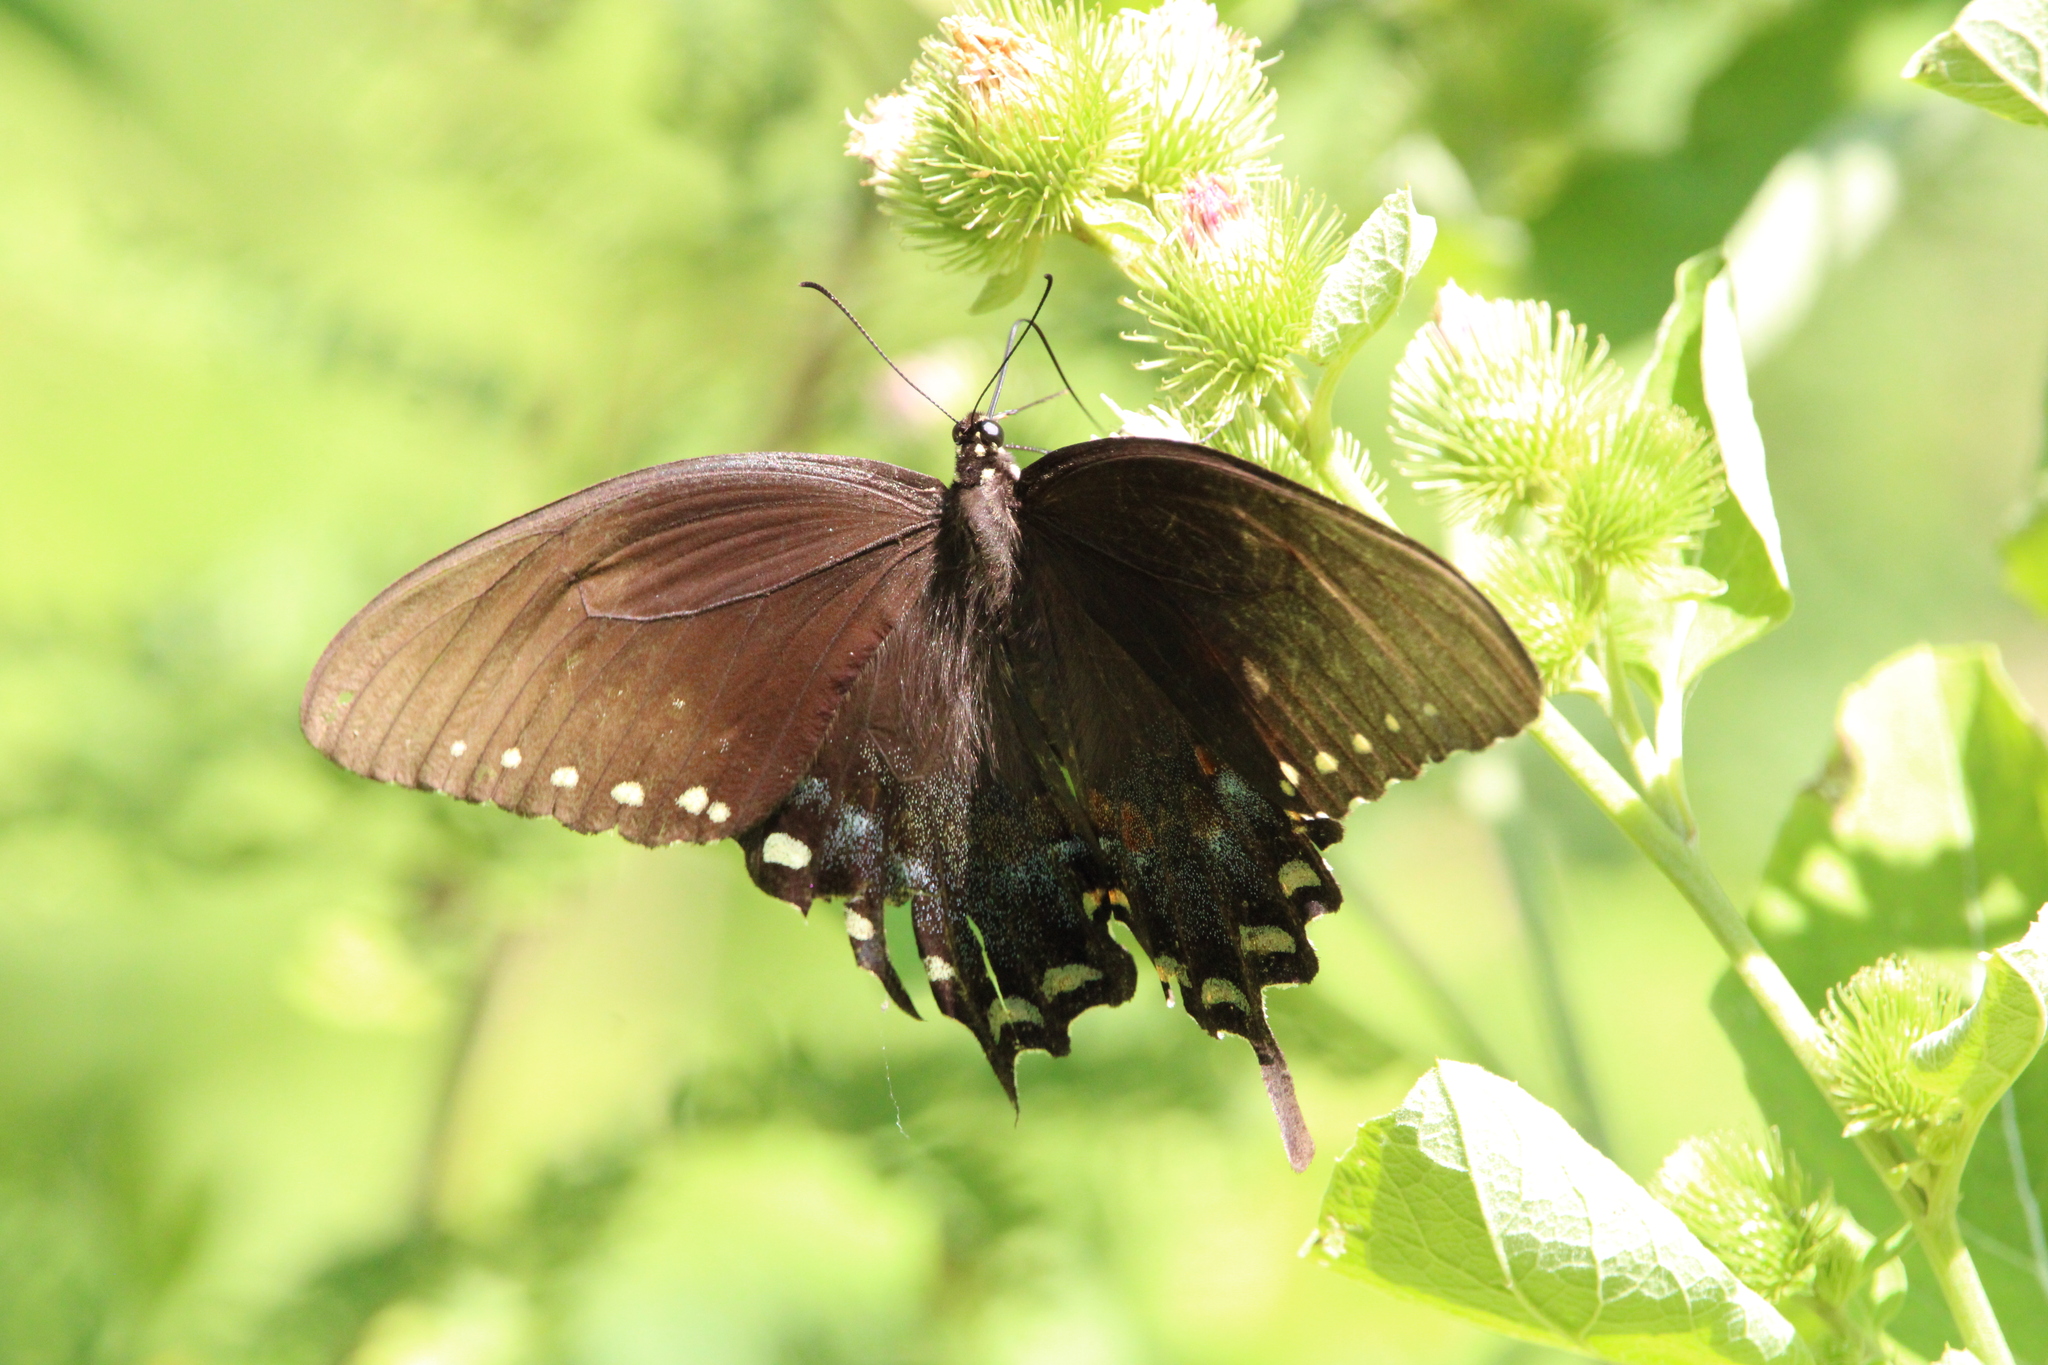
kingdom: Animalia
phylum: Arthropoda
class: Insecta
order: Lepidoptera
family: Papilionidae
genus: Papilio
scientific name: Papilio troilus
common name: Spicebush swallowtail
